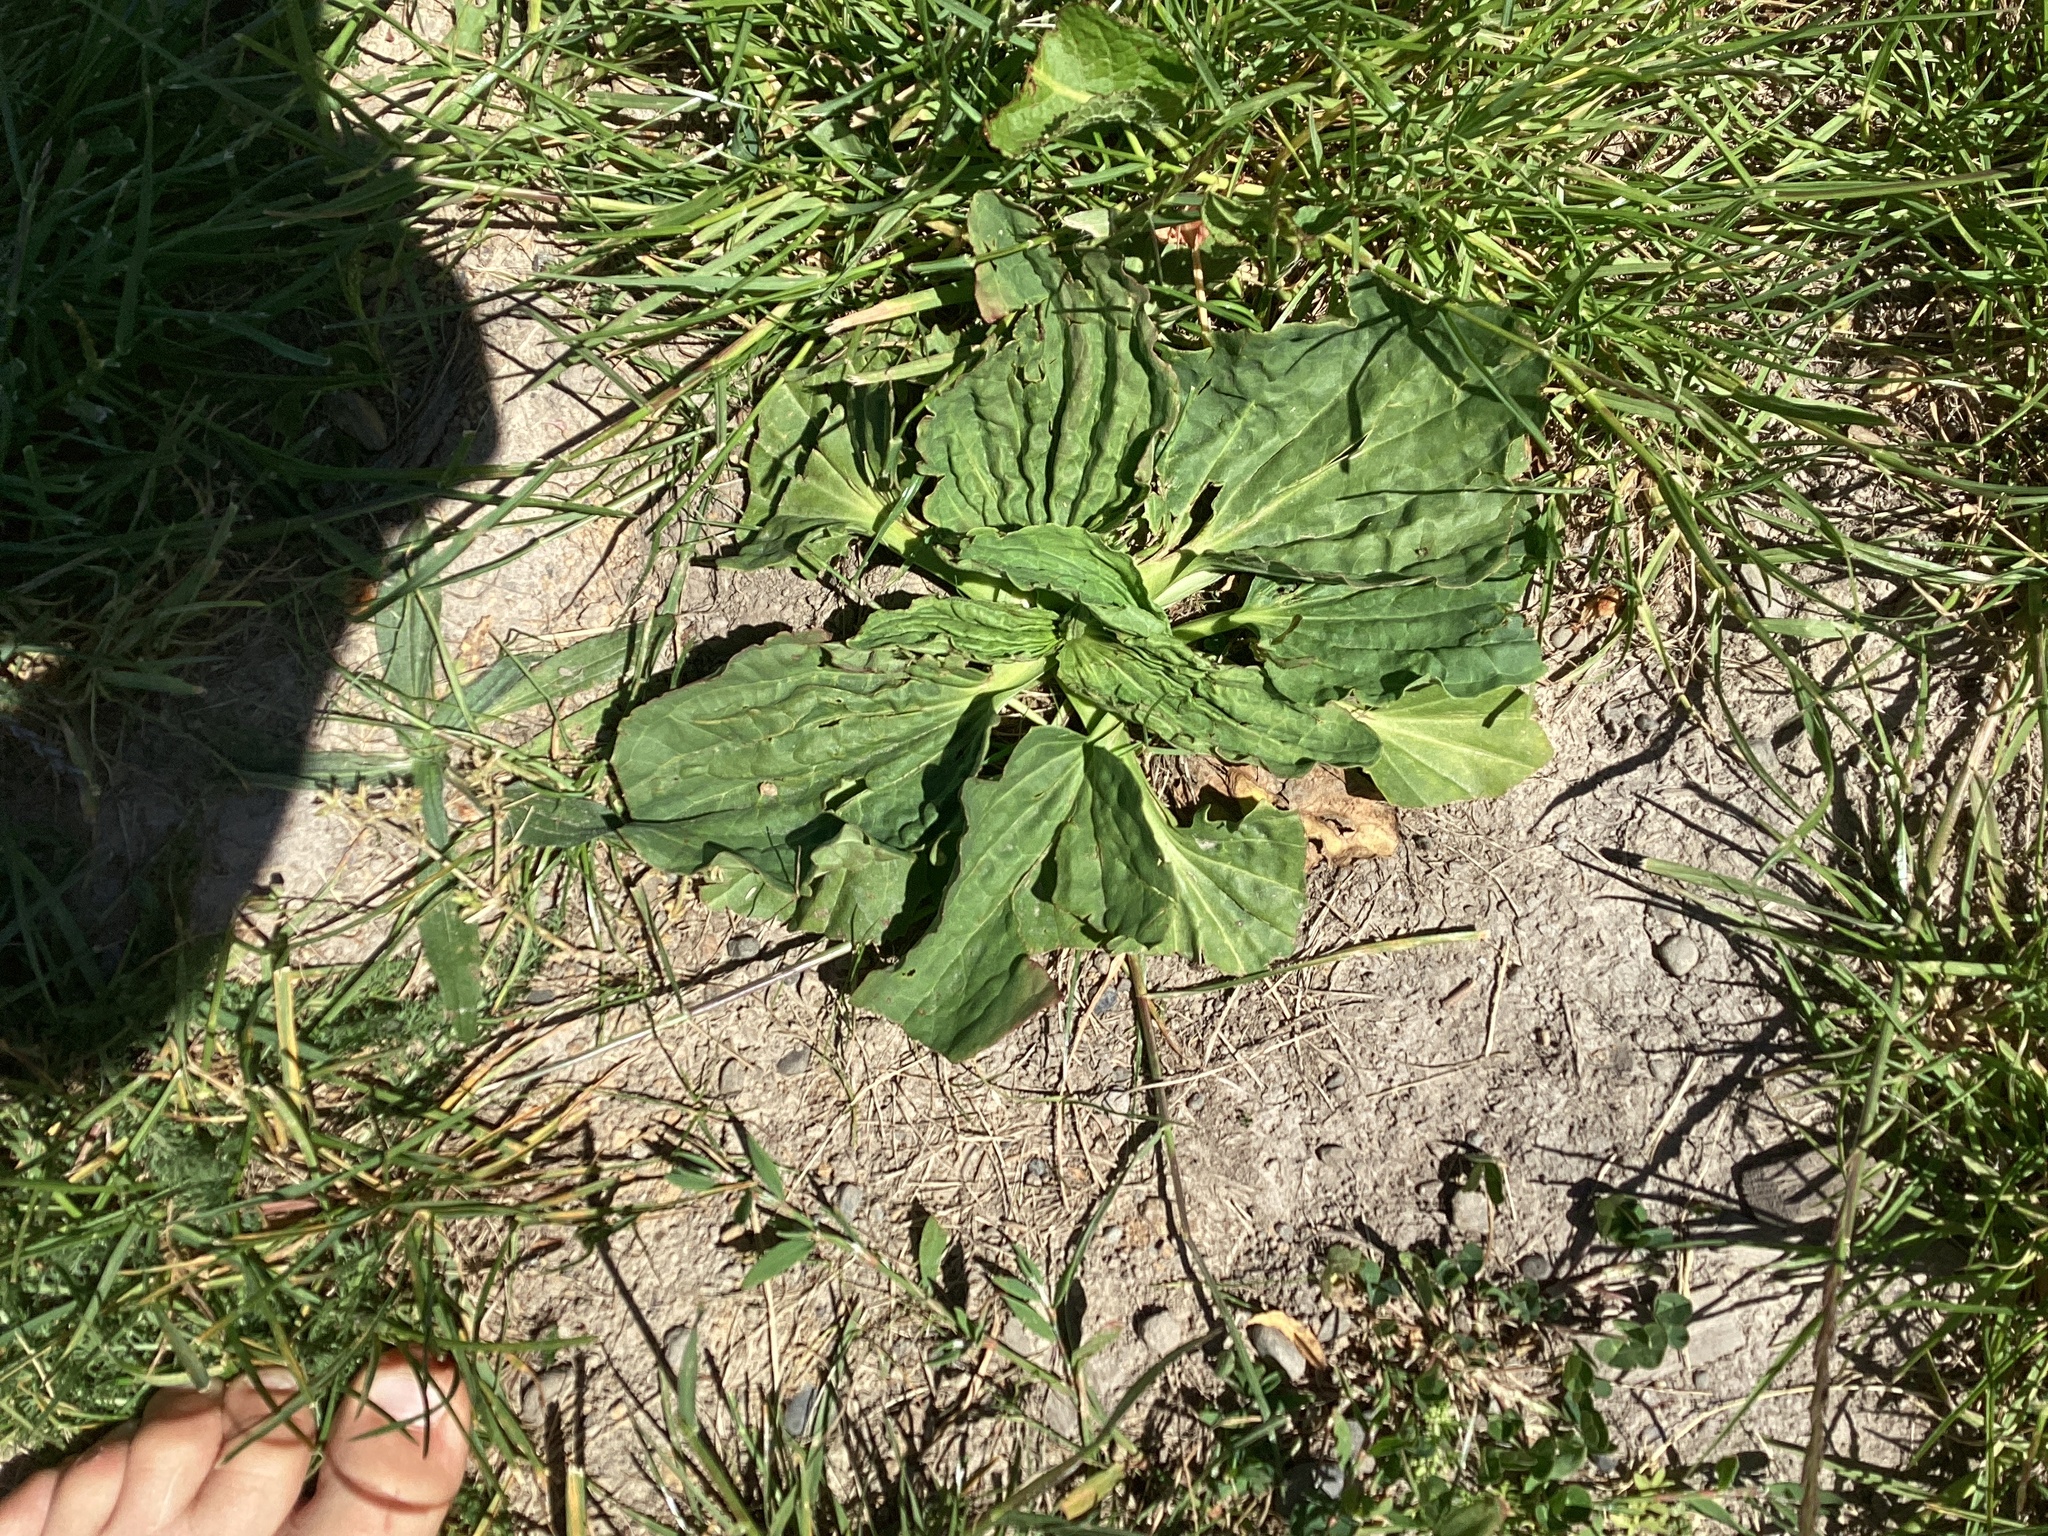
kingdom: Plantae
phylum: Tracheophyta
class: Magnoliopsida
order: Lamiales
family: Plantaginaceae
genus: Plantago
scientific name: Plantago major
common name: Common plantain
